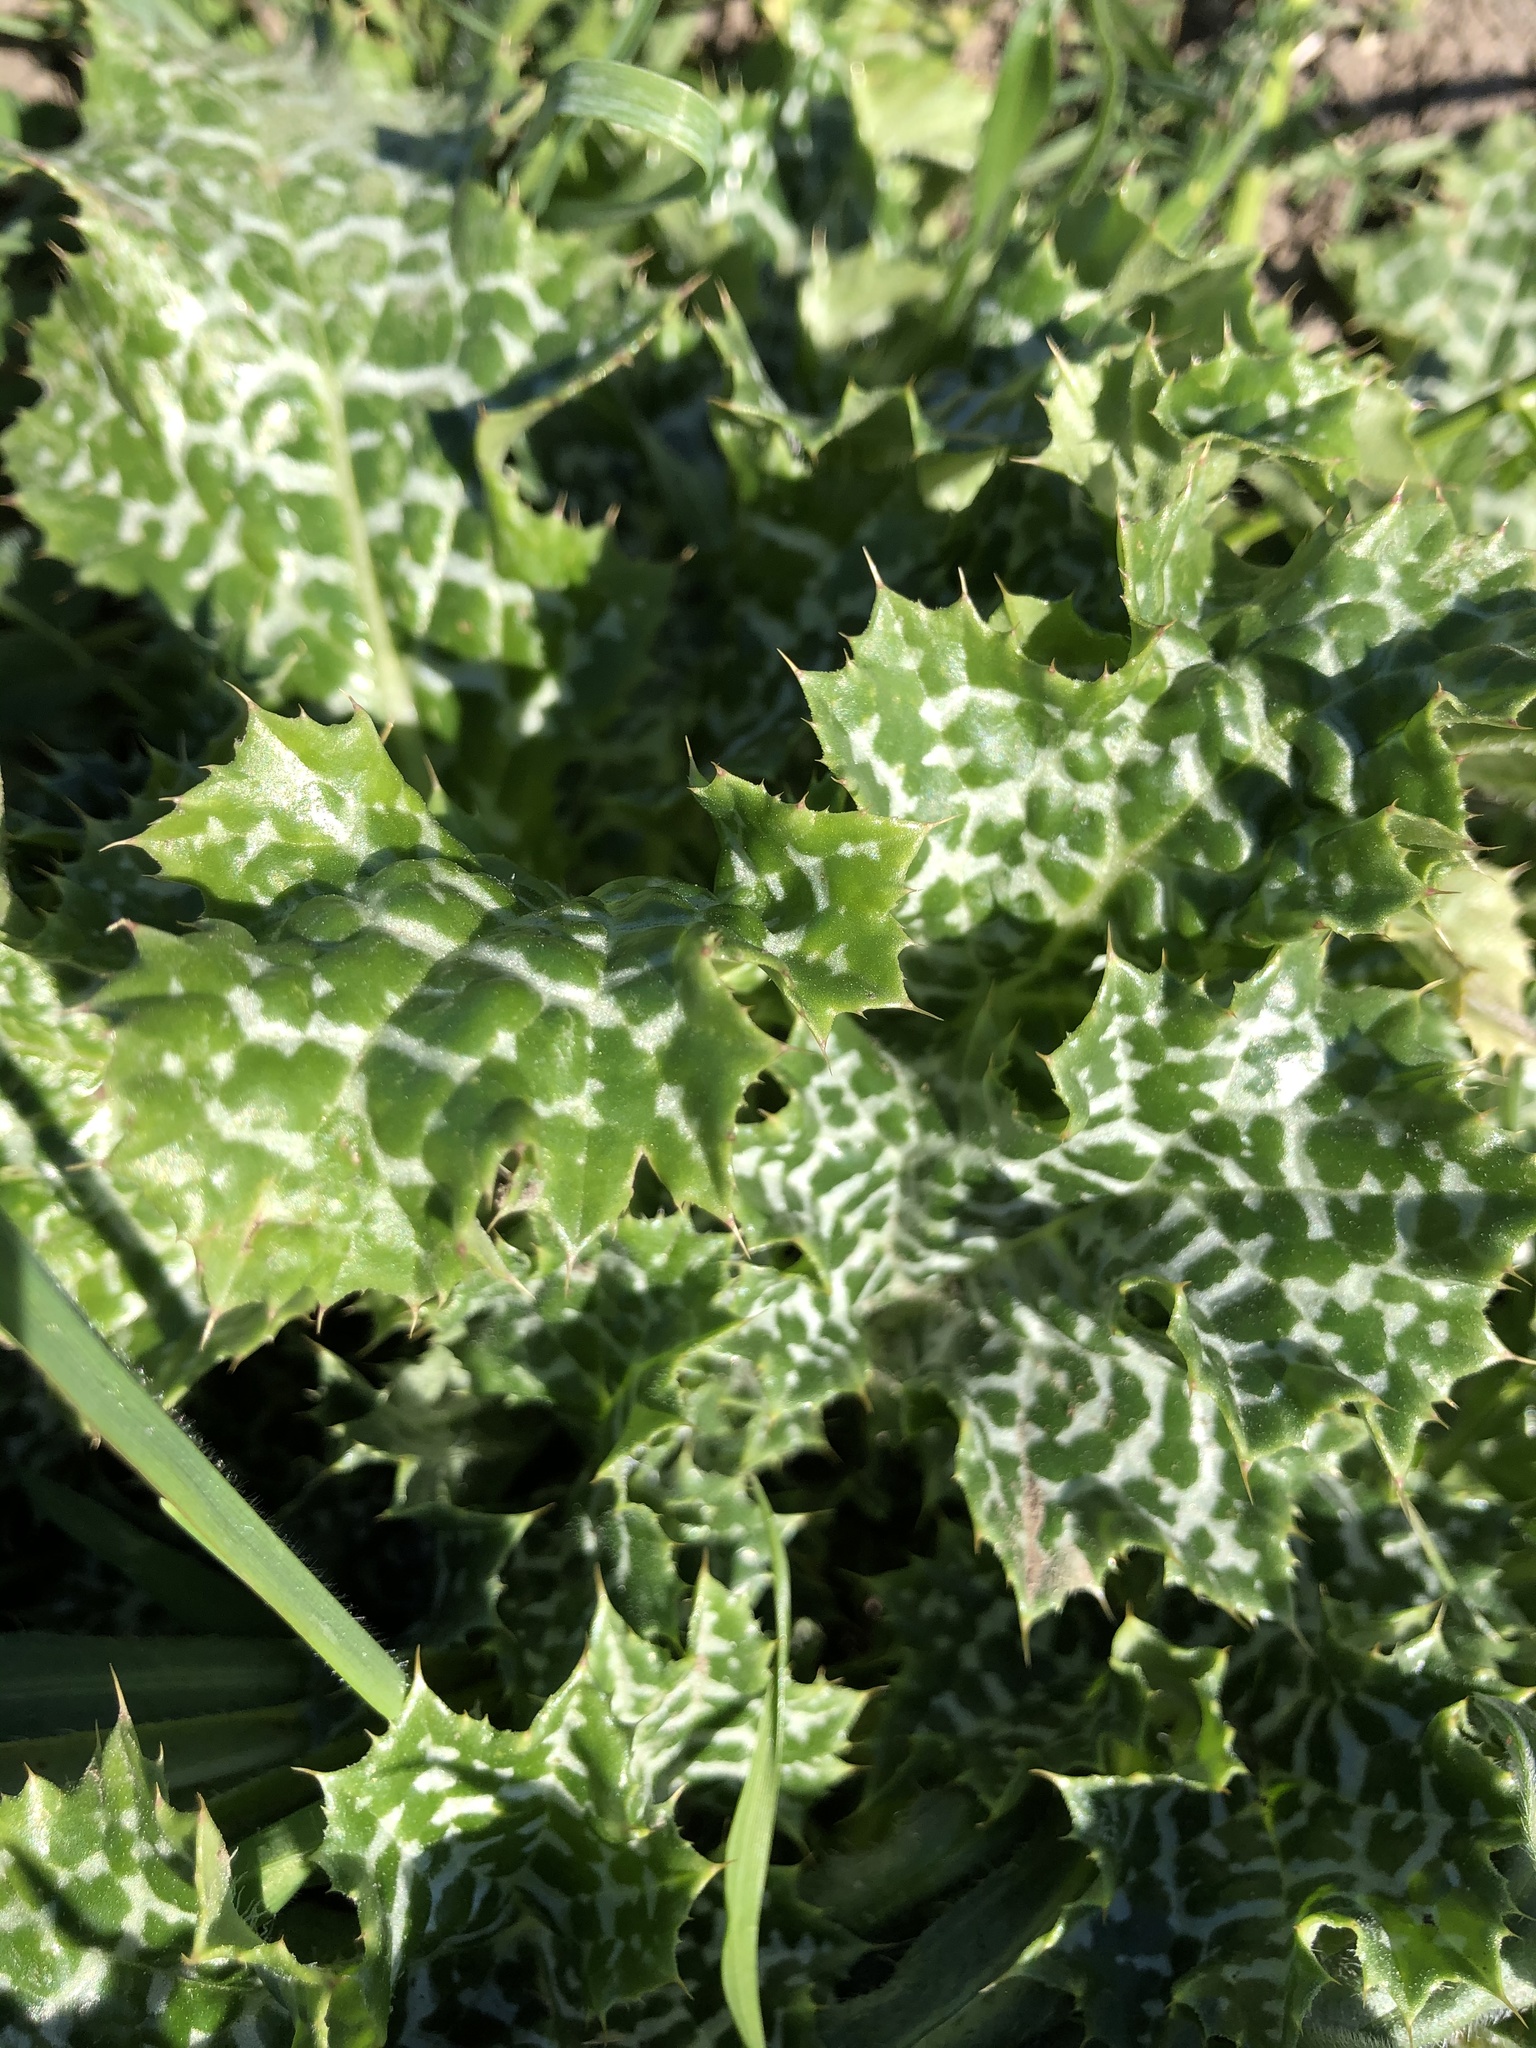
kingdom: Plantae
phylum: Tracheophyta
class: Magnoliopsida
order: Asterales
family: Asteraceae
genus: Silybum
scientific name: Silybum marianum
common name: Milk thistle
